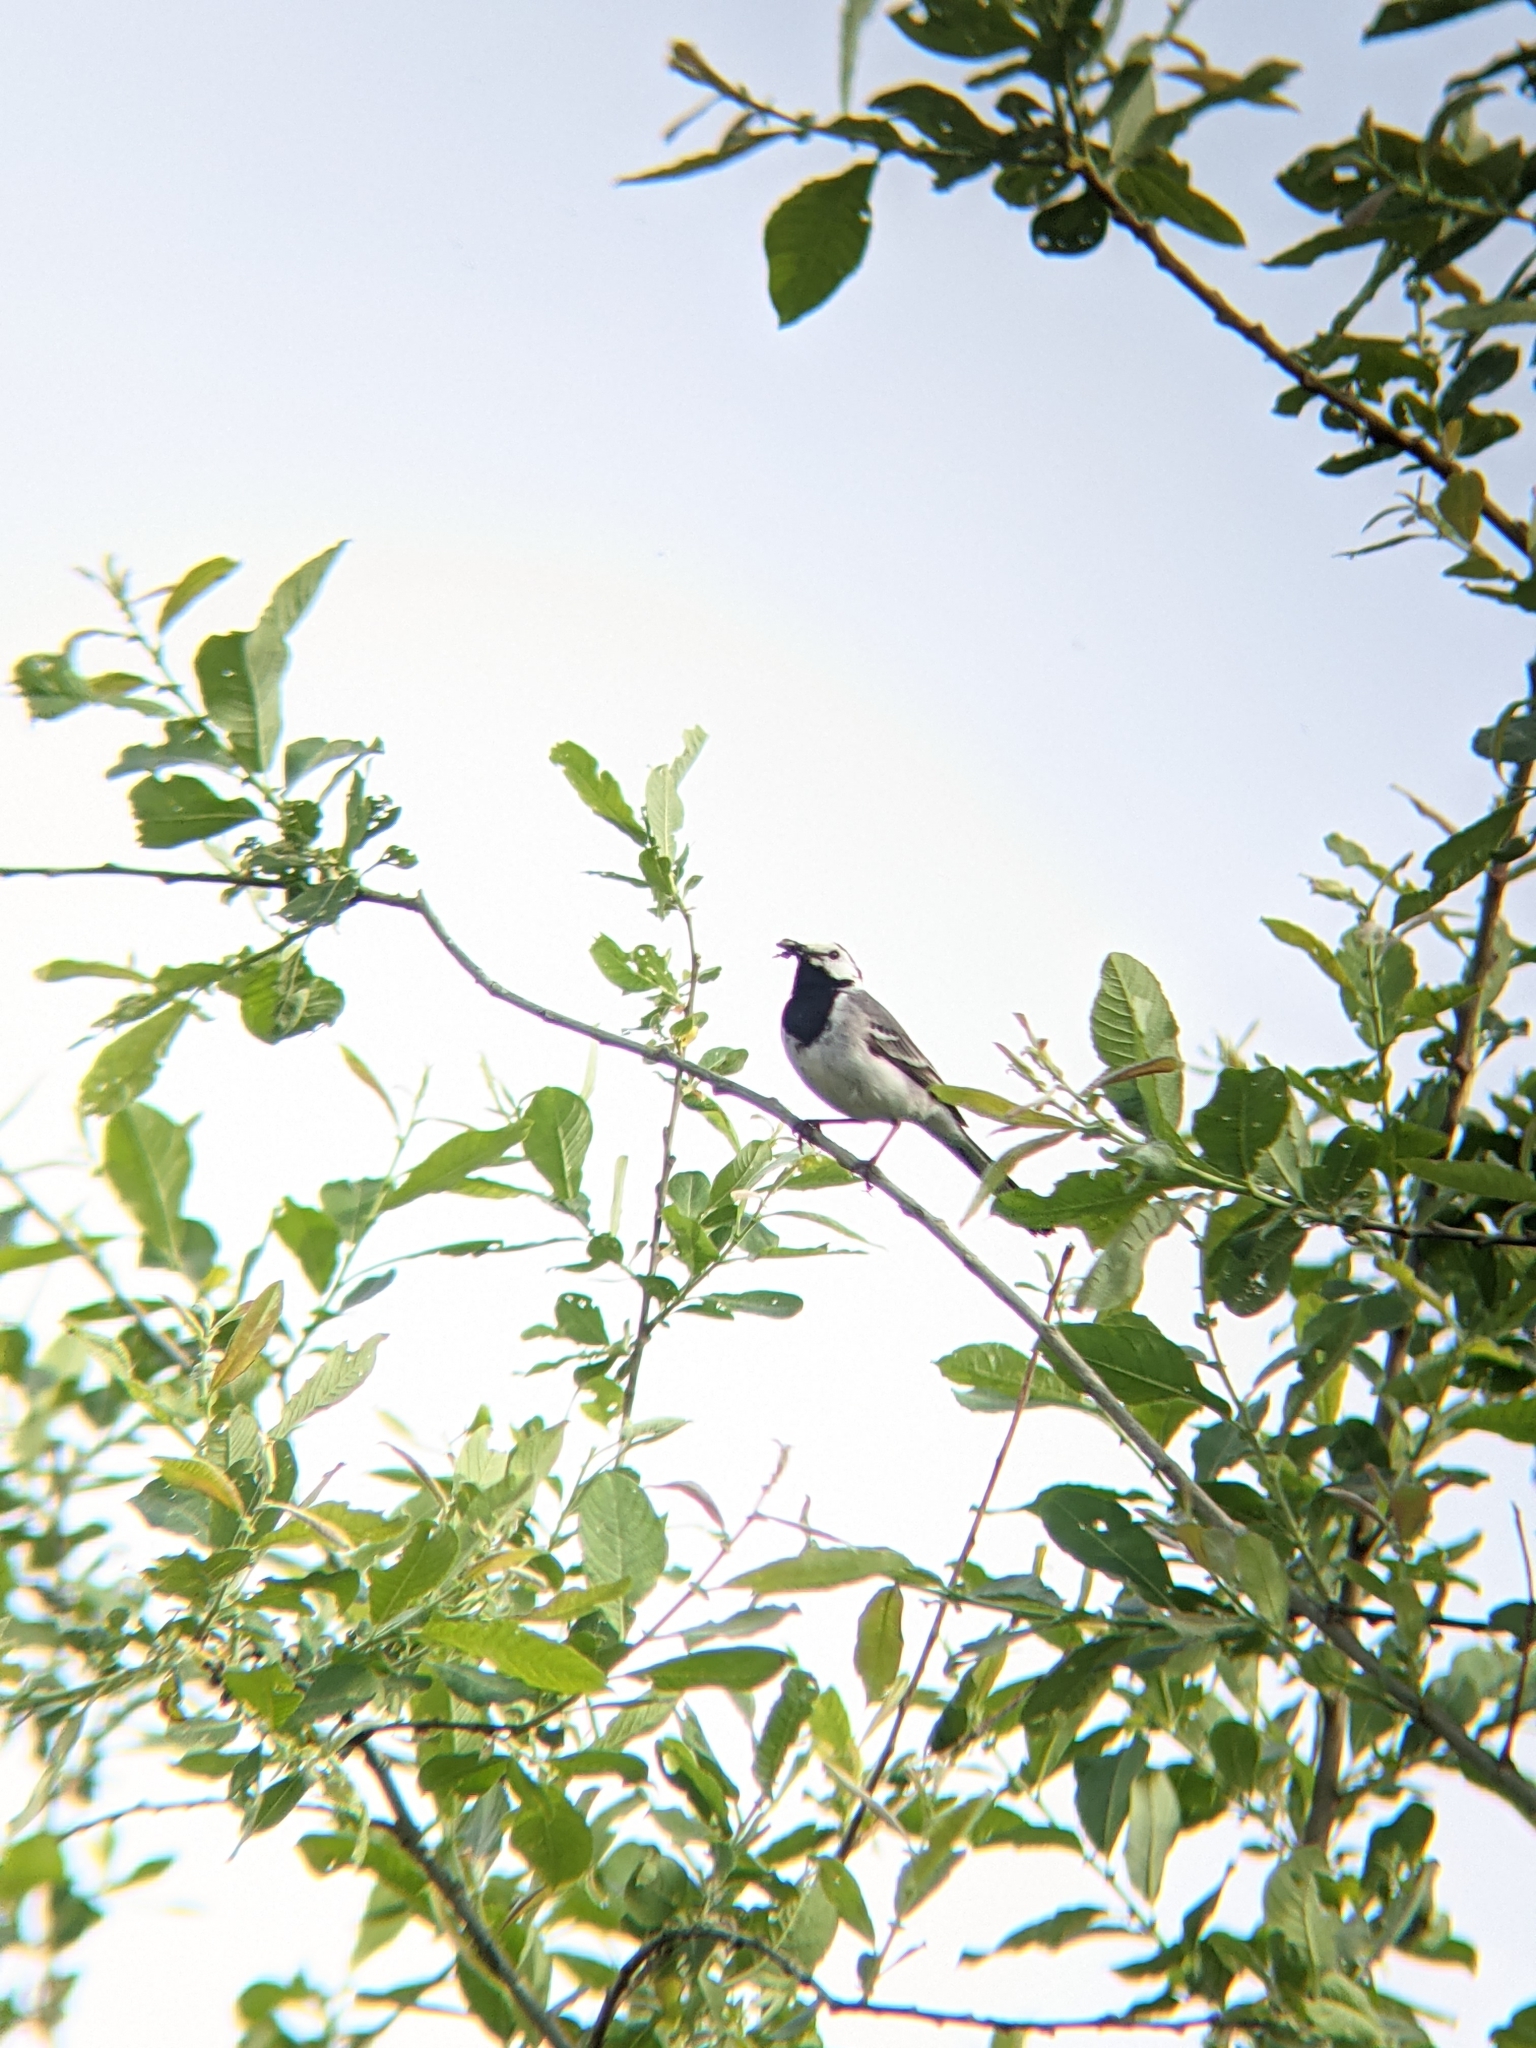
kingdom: Animalia
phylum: Chordata
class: Aves
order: Passeriformes
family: Motacillidae
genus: Motacilla
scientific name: Motacilla alba
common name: White wagtail
